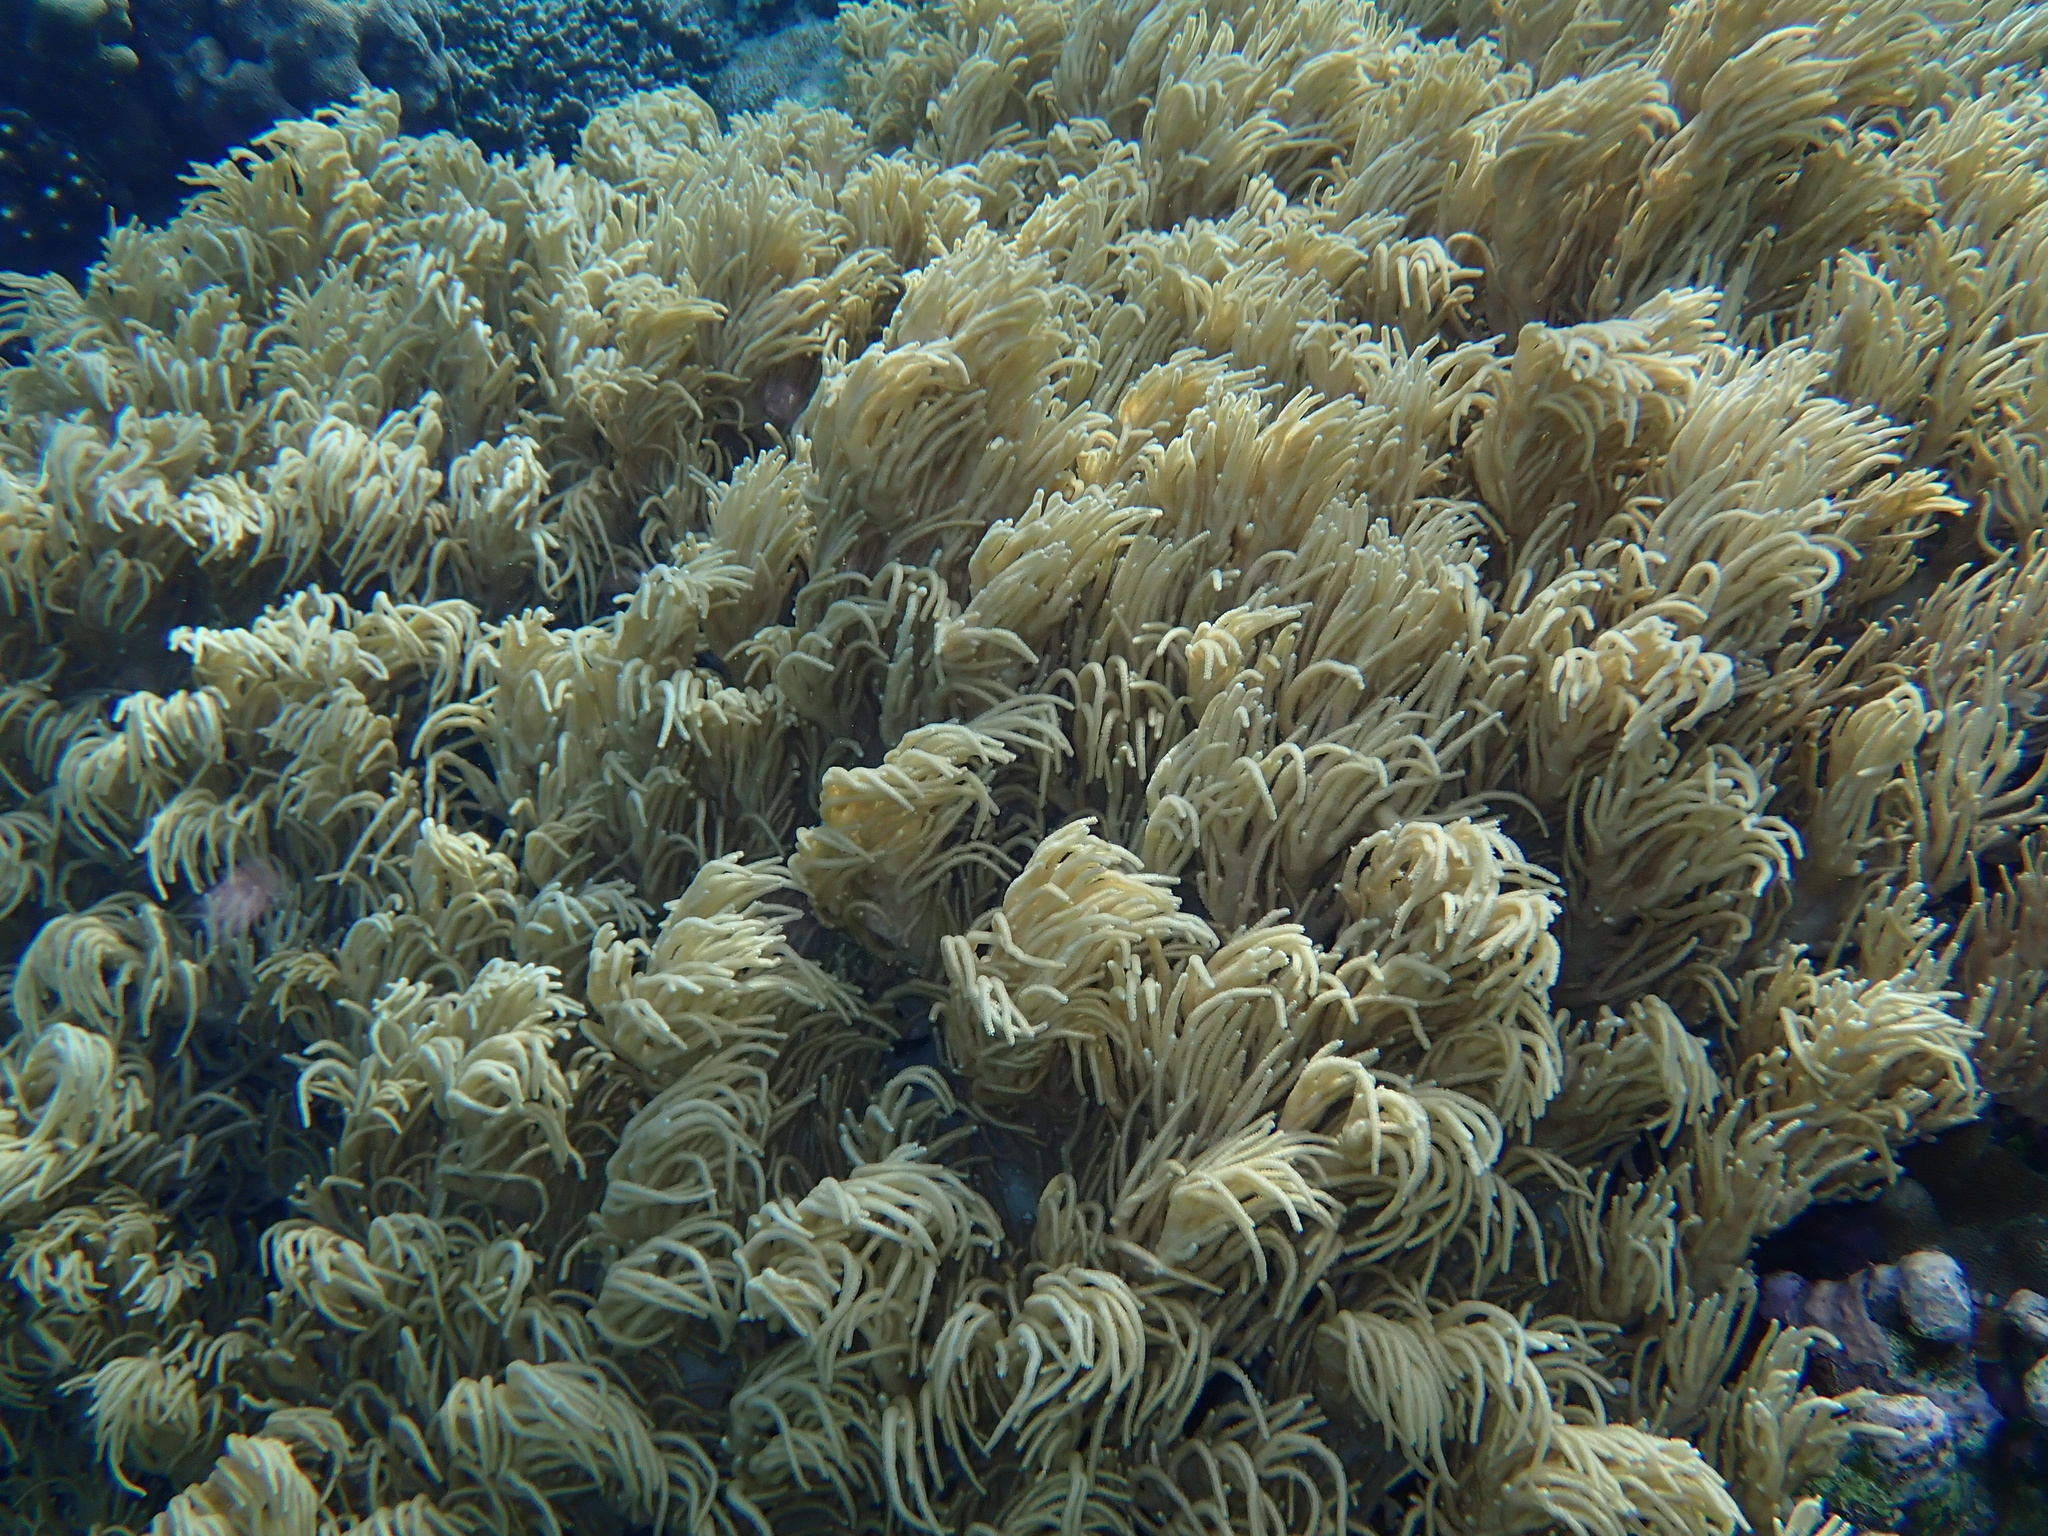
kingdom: Animalia
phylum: Cnidaria
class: Anthozoa
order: Malacalcyonacea
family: Sarcophytidae
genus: Sclerophytum
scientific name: Sclerophytum flexibile
